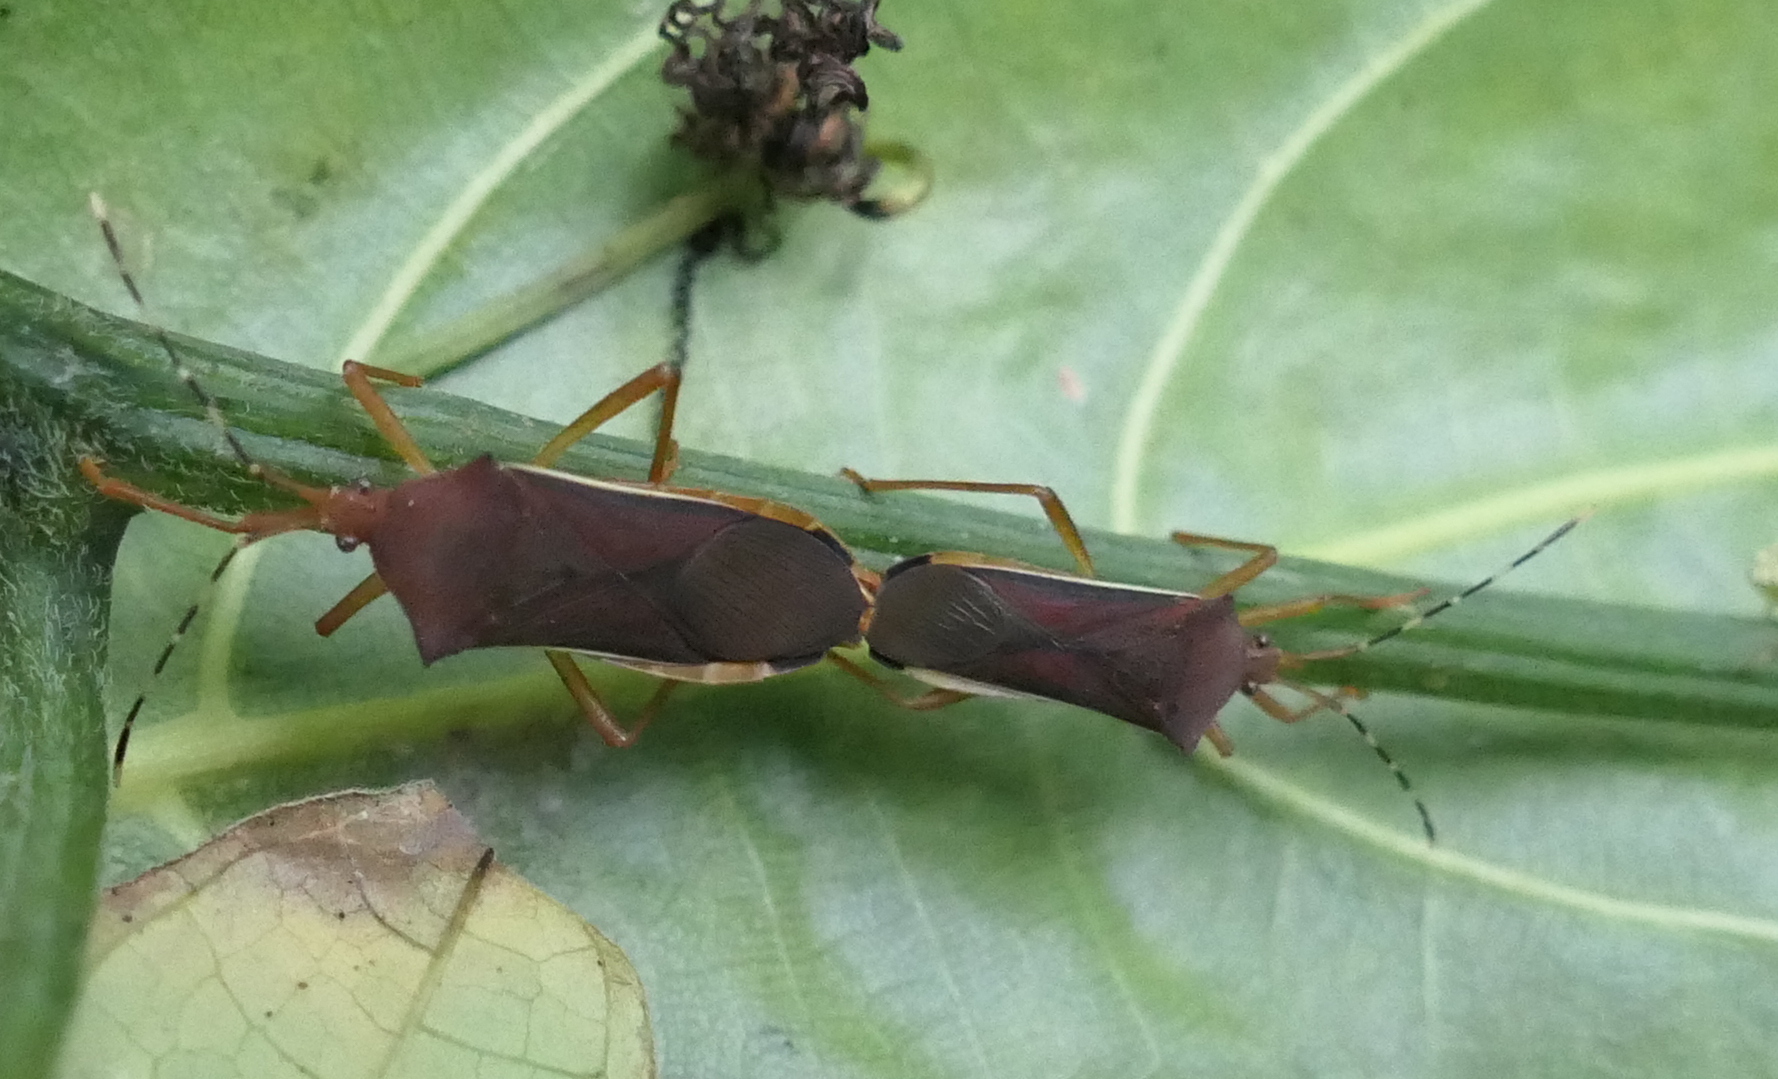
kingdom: Animalia
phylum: Arthropoda
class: Insecta
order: Hemiptera
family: Coreidae
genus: Anasa
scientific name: Anasa varicornis
